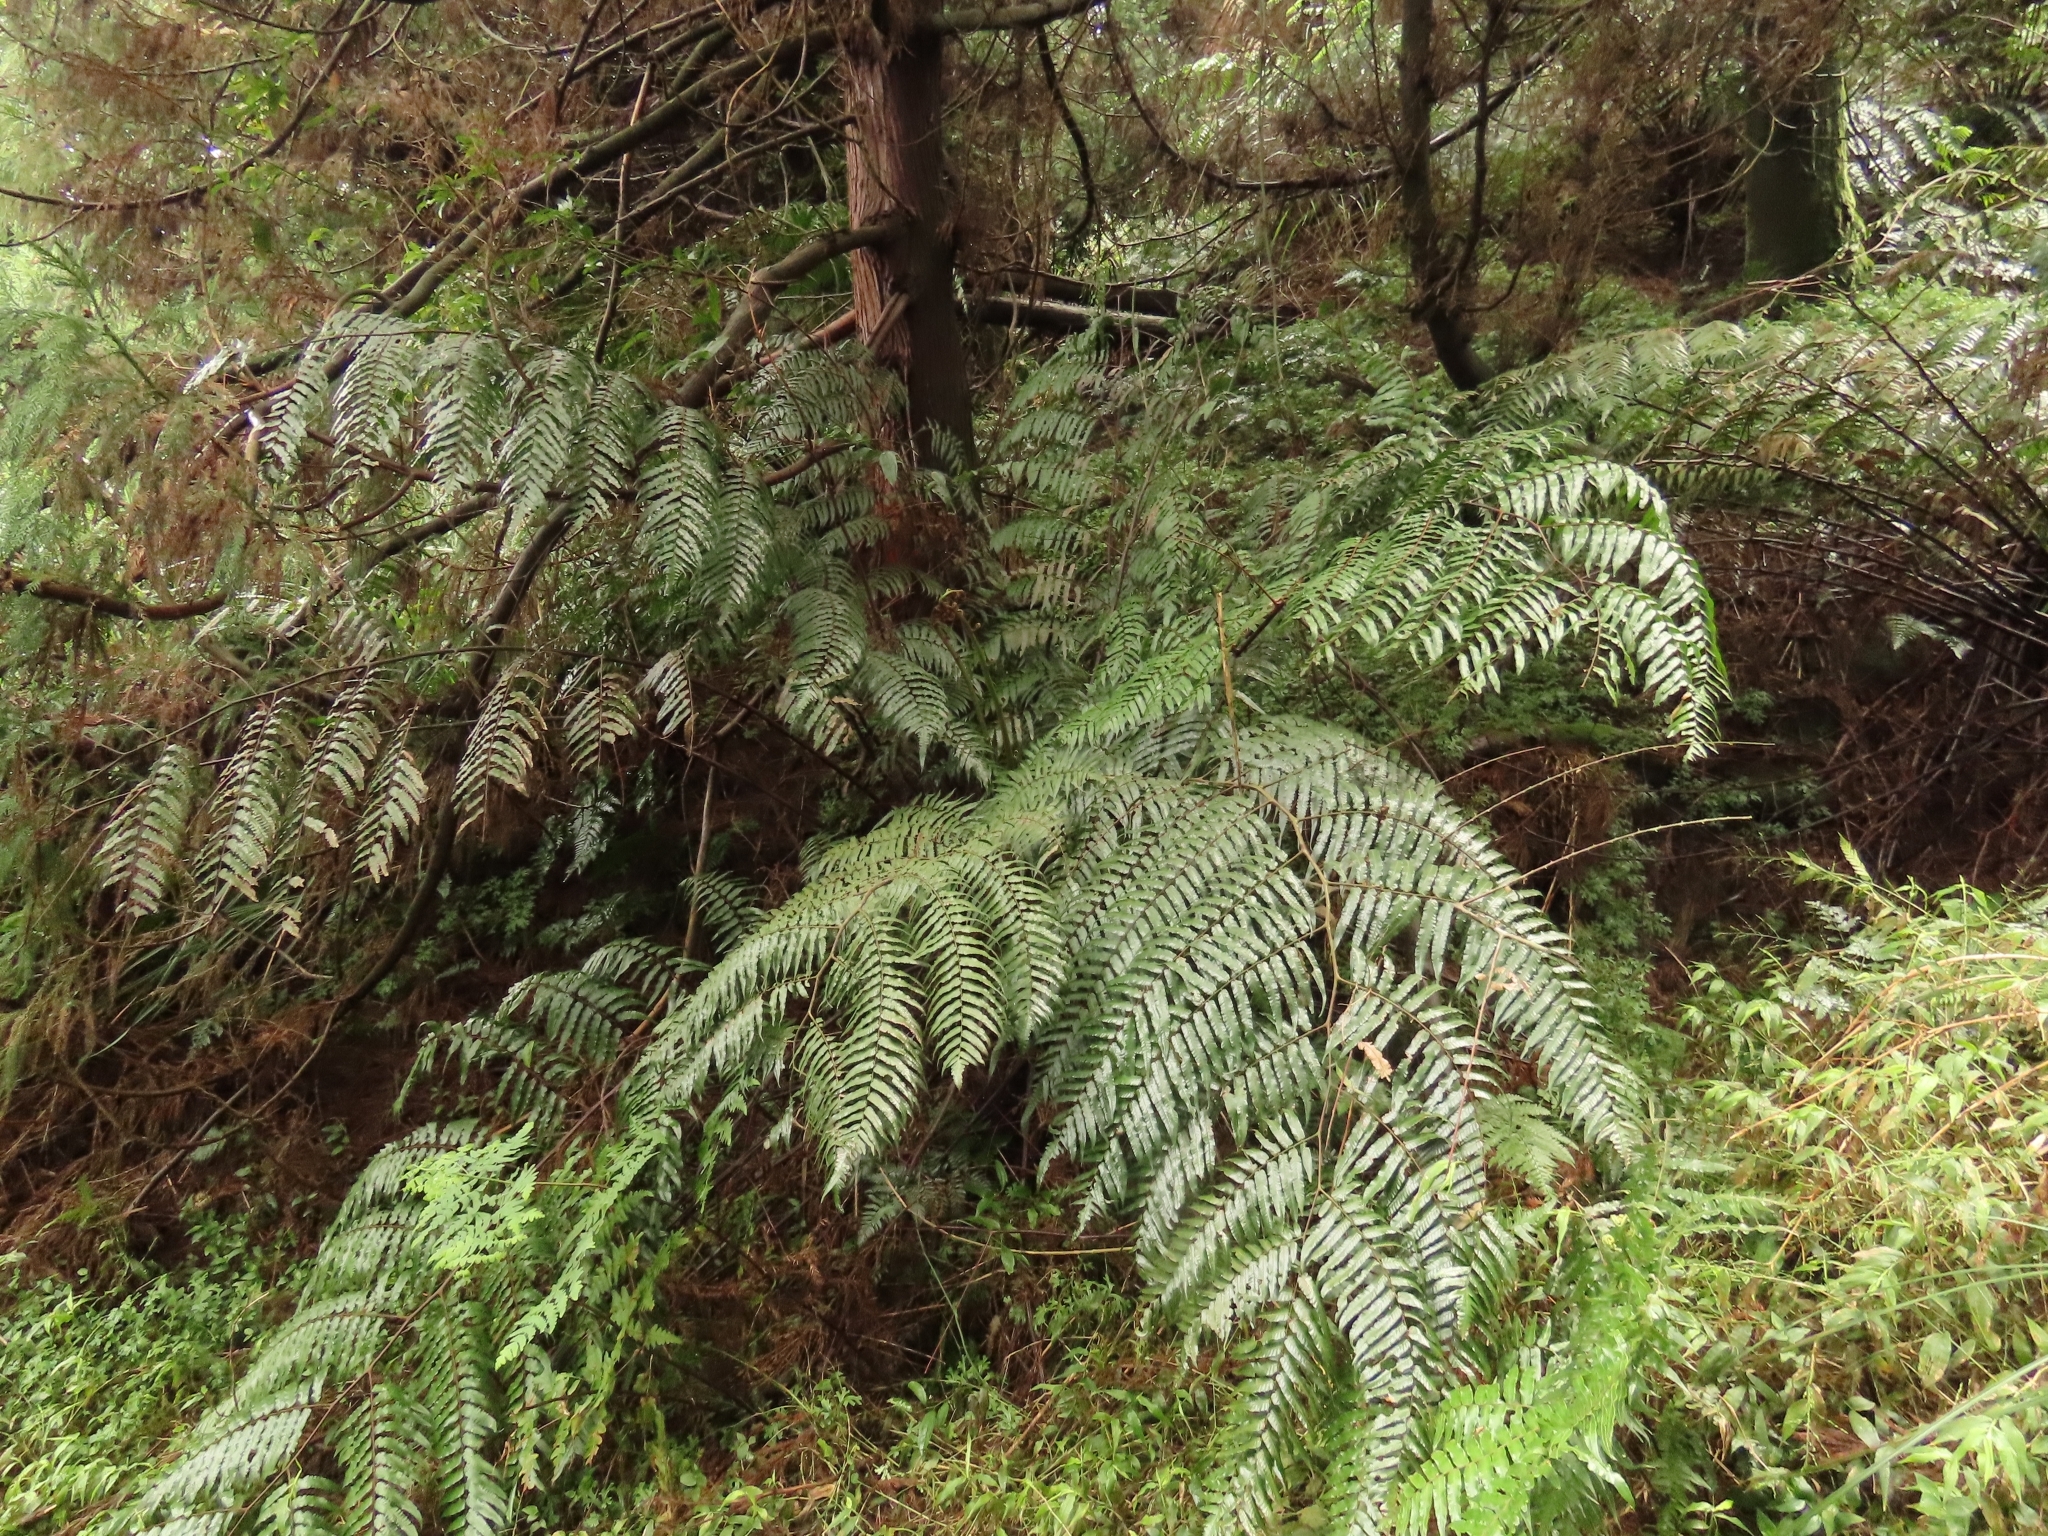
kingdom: Plantae
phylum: Tracheophyta
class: Polypodiopsida
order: Cyatheales
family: Cyatheaceae
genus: Gymnosphaera
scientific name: Gymnosphaera podophylla
